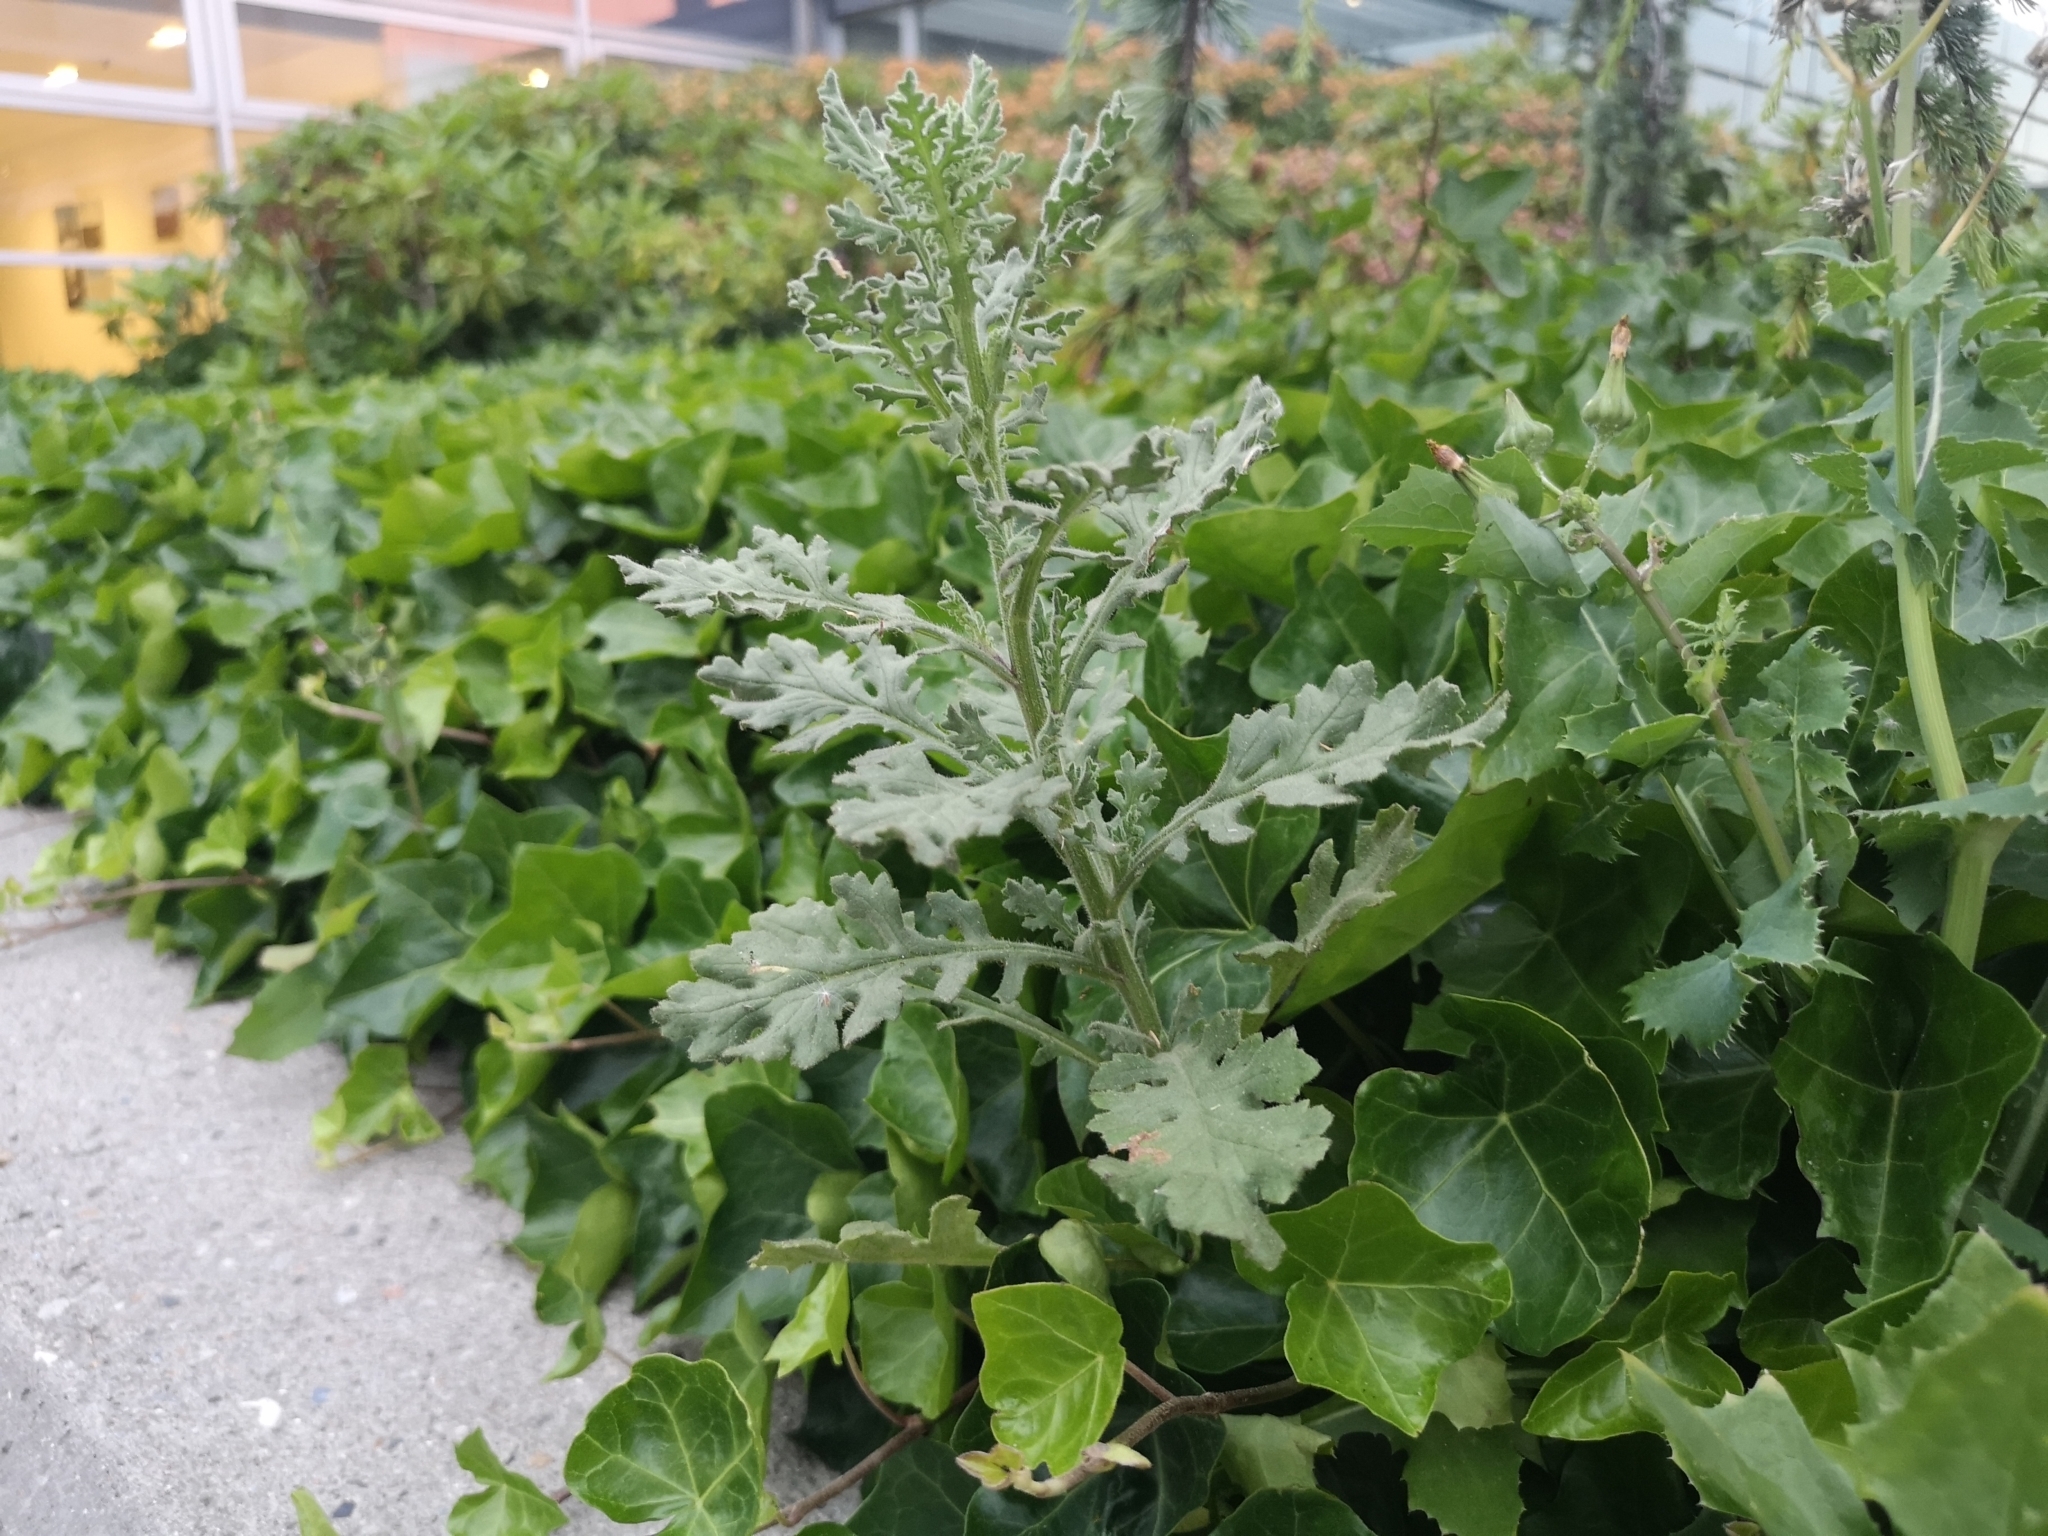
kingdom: Plantae
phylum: Tracheophyta
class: Magnoliopsida
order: Asterales
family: Asteraceae
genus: Senecio
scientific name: Senecio viscosus
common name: Sticky groundsel
